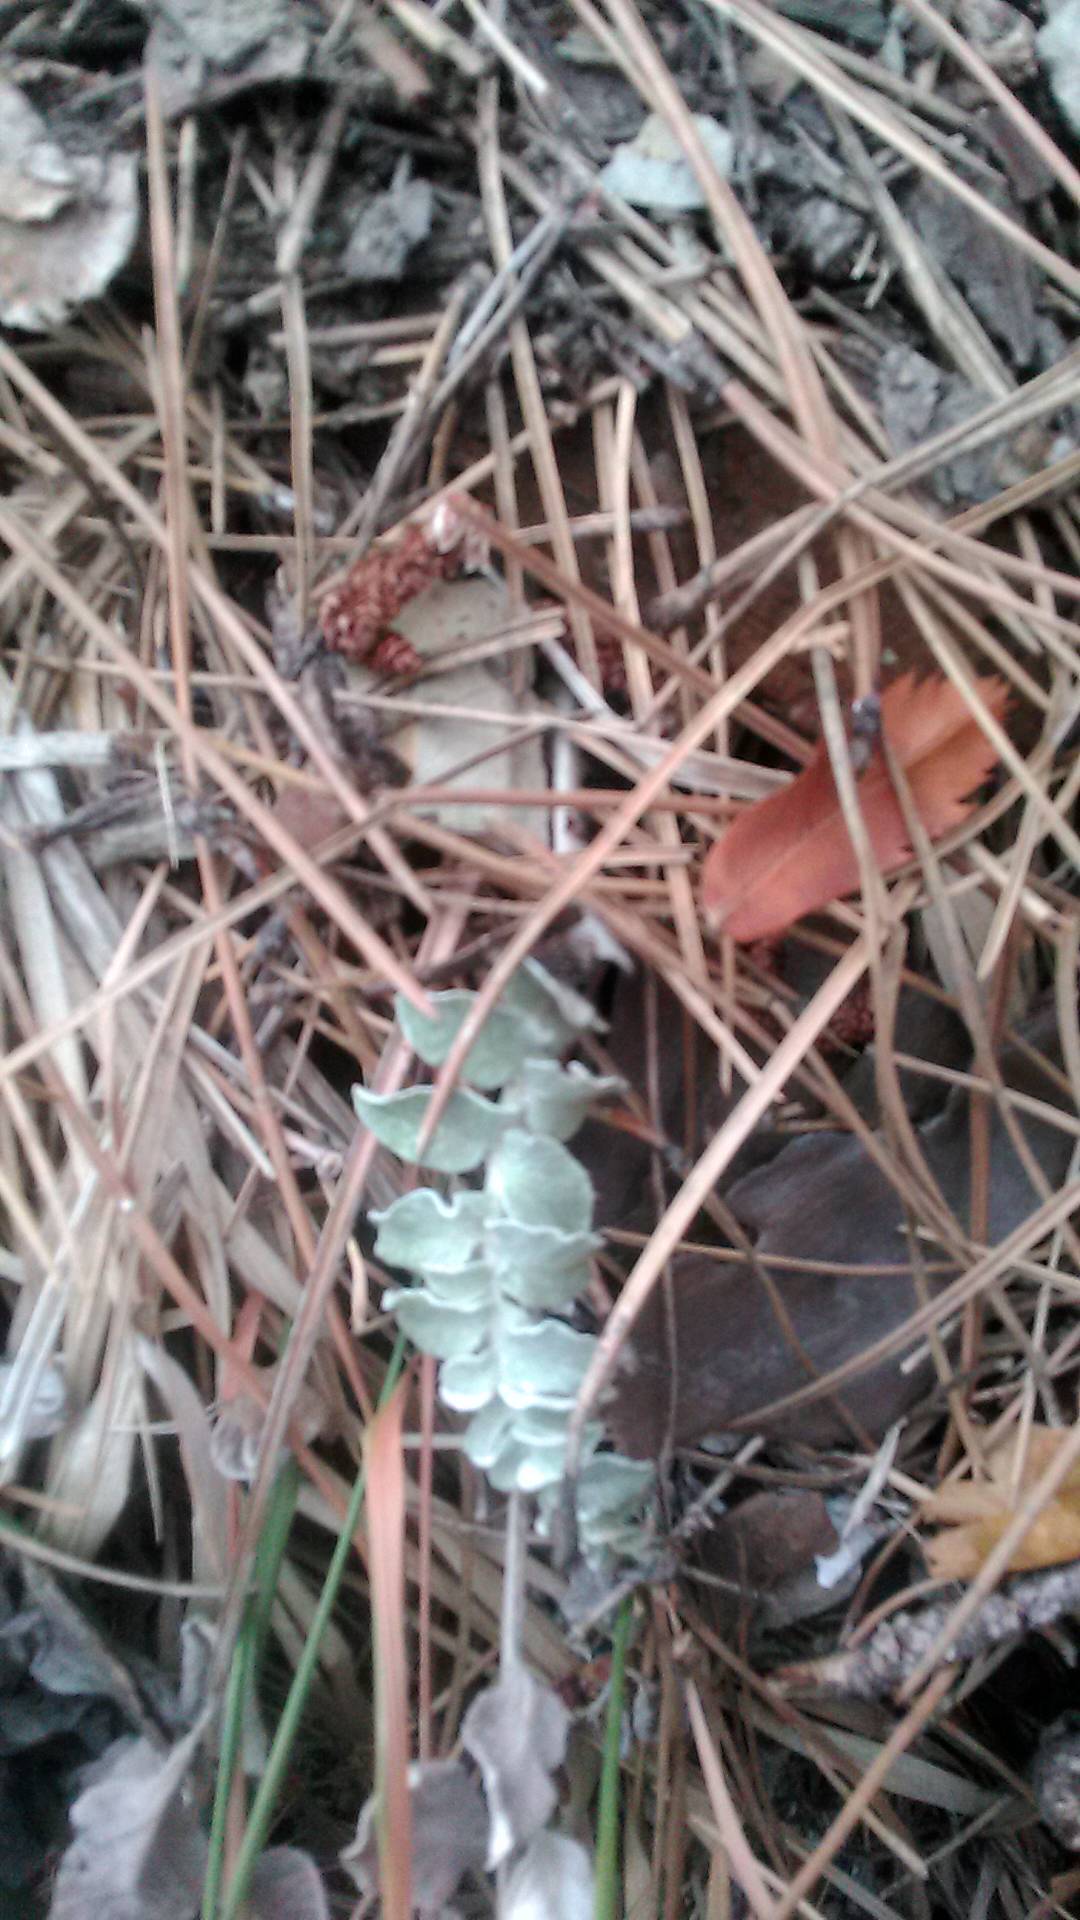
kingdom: Plantae
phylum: Tracheophyta
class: Magnoliopsida
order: Asterales
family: Asteraceae
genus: Psephellus
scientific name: Psephellus declinatus
